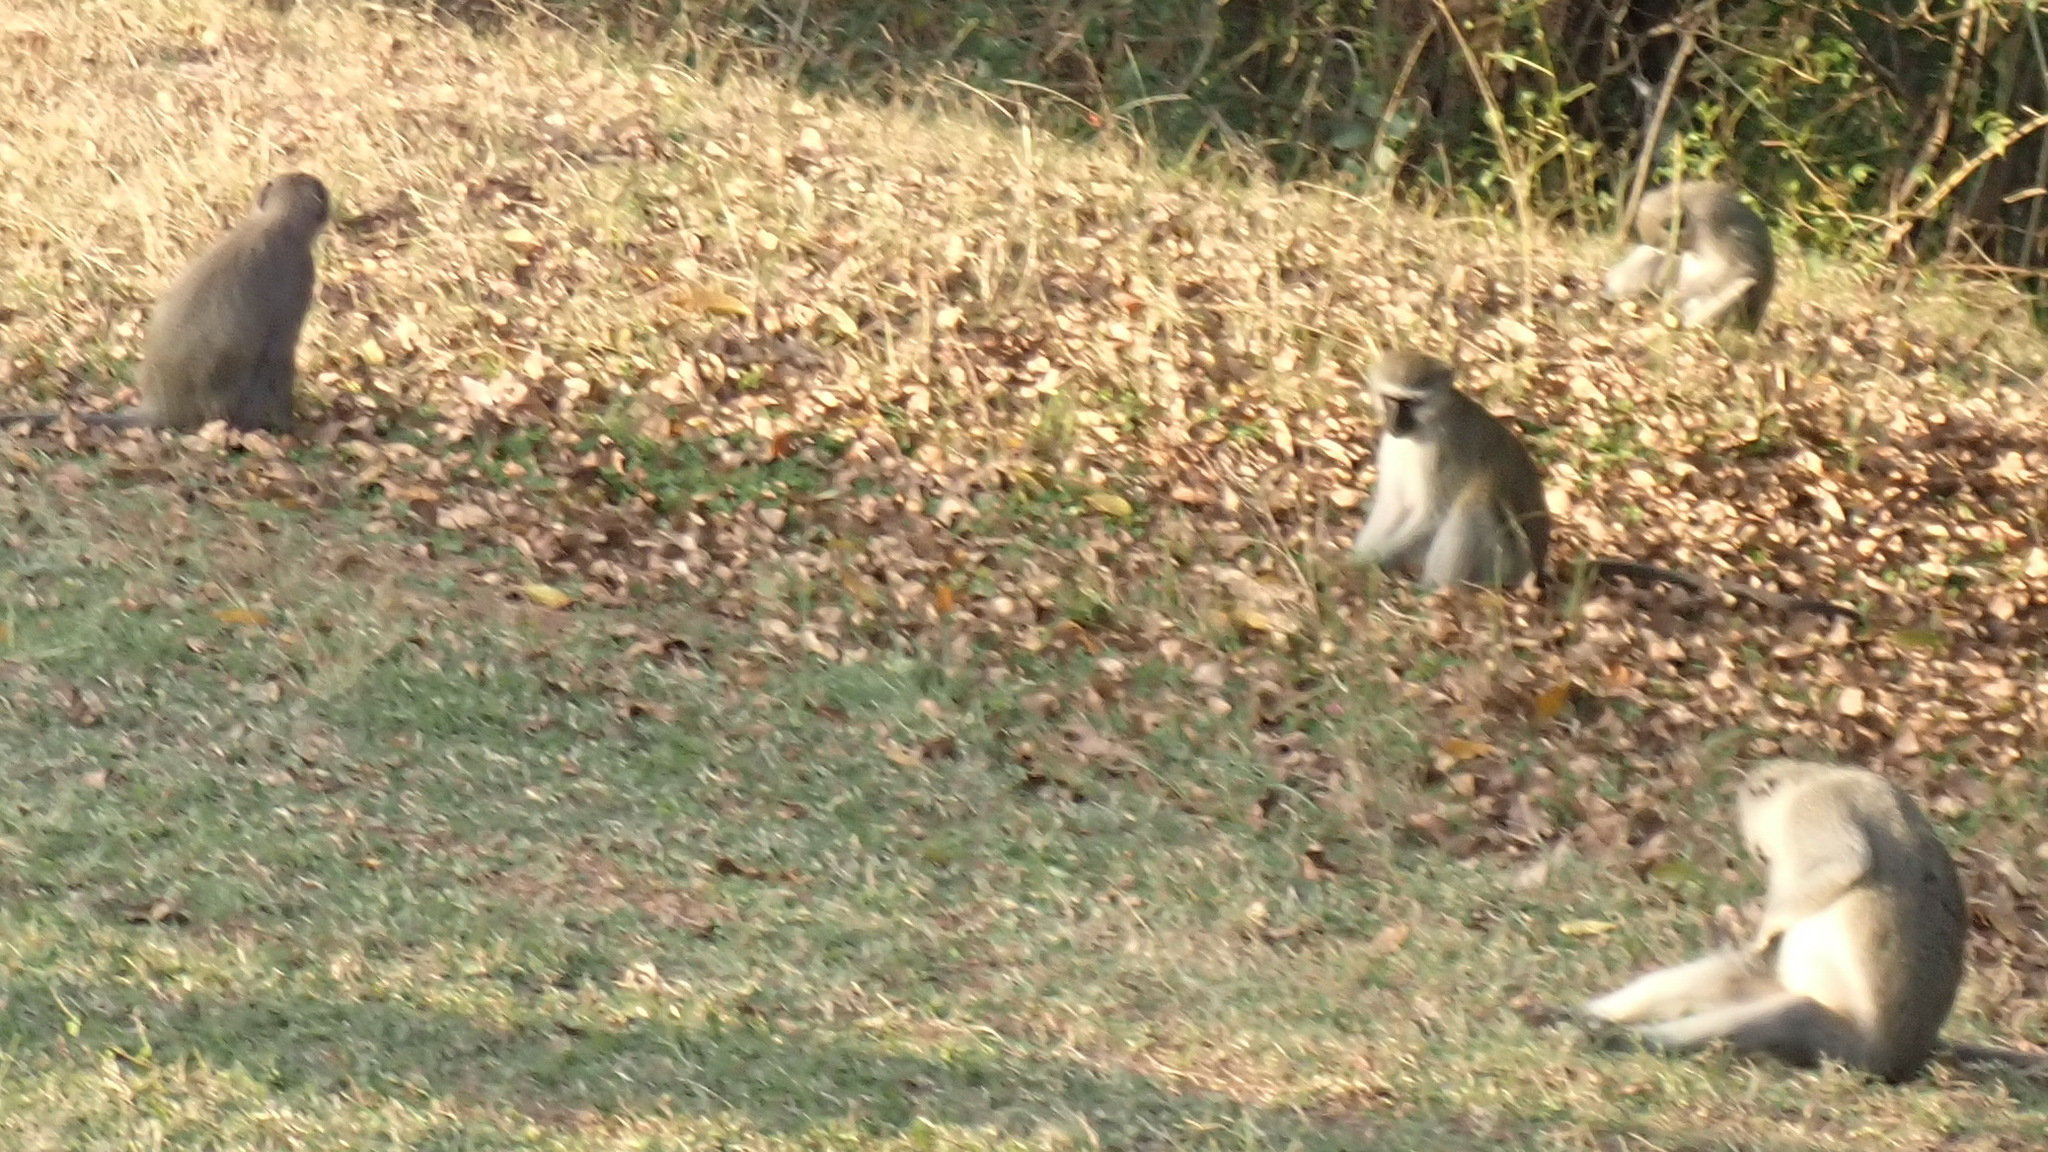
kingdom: Animalia
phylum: Chordata
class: Mammalia
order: Primates
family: Cercopithecidae
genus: Chlorocebus
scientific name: Chlorocebus pygerythrus
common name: Vervet monkey
